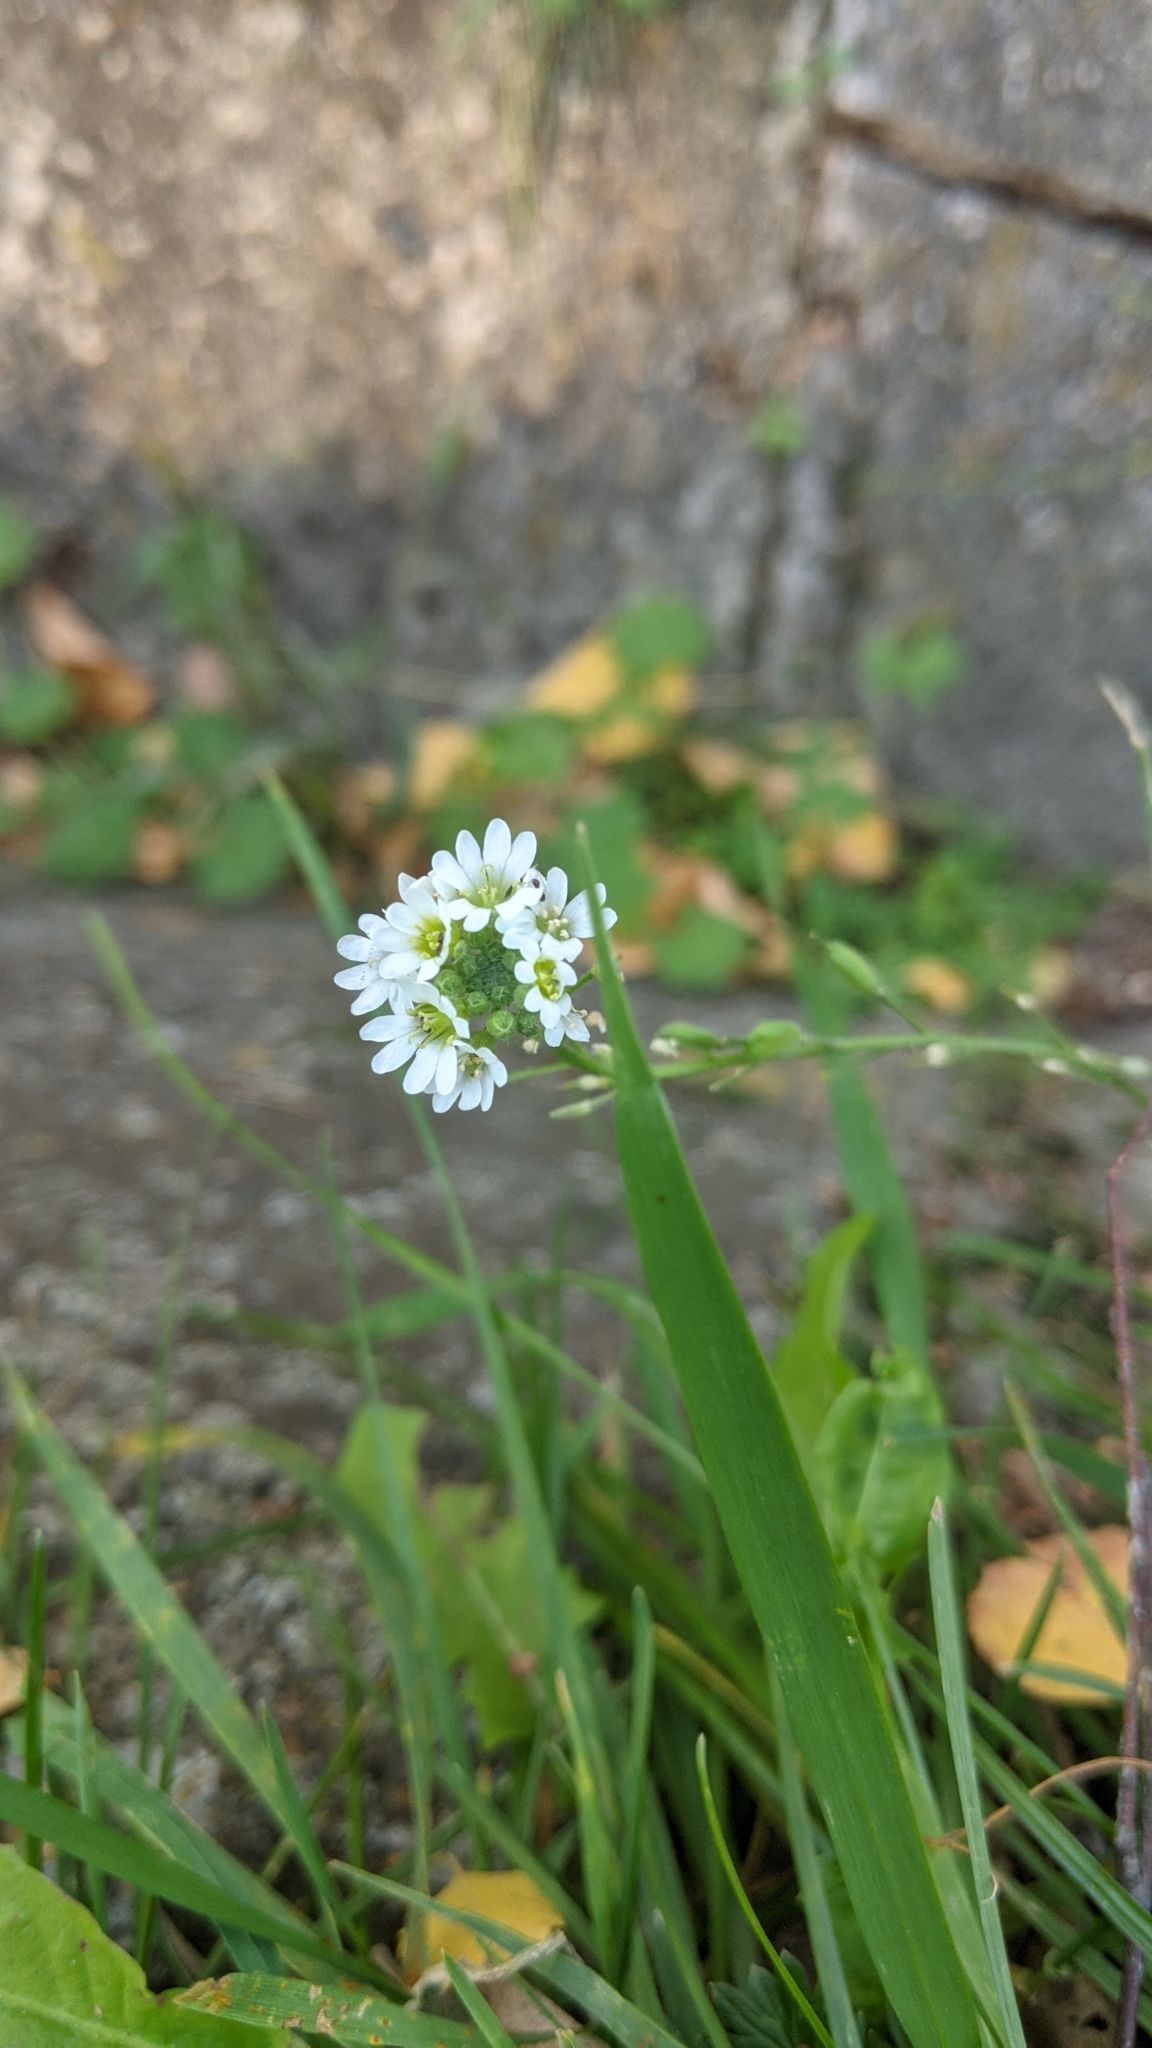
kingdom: Plantae
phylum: Tracheophyta
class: Magnoliopsida
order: Brassicales
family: Brassicaceae
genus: Berteroa
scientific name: Berteroa incana
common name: Hoary alison
